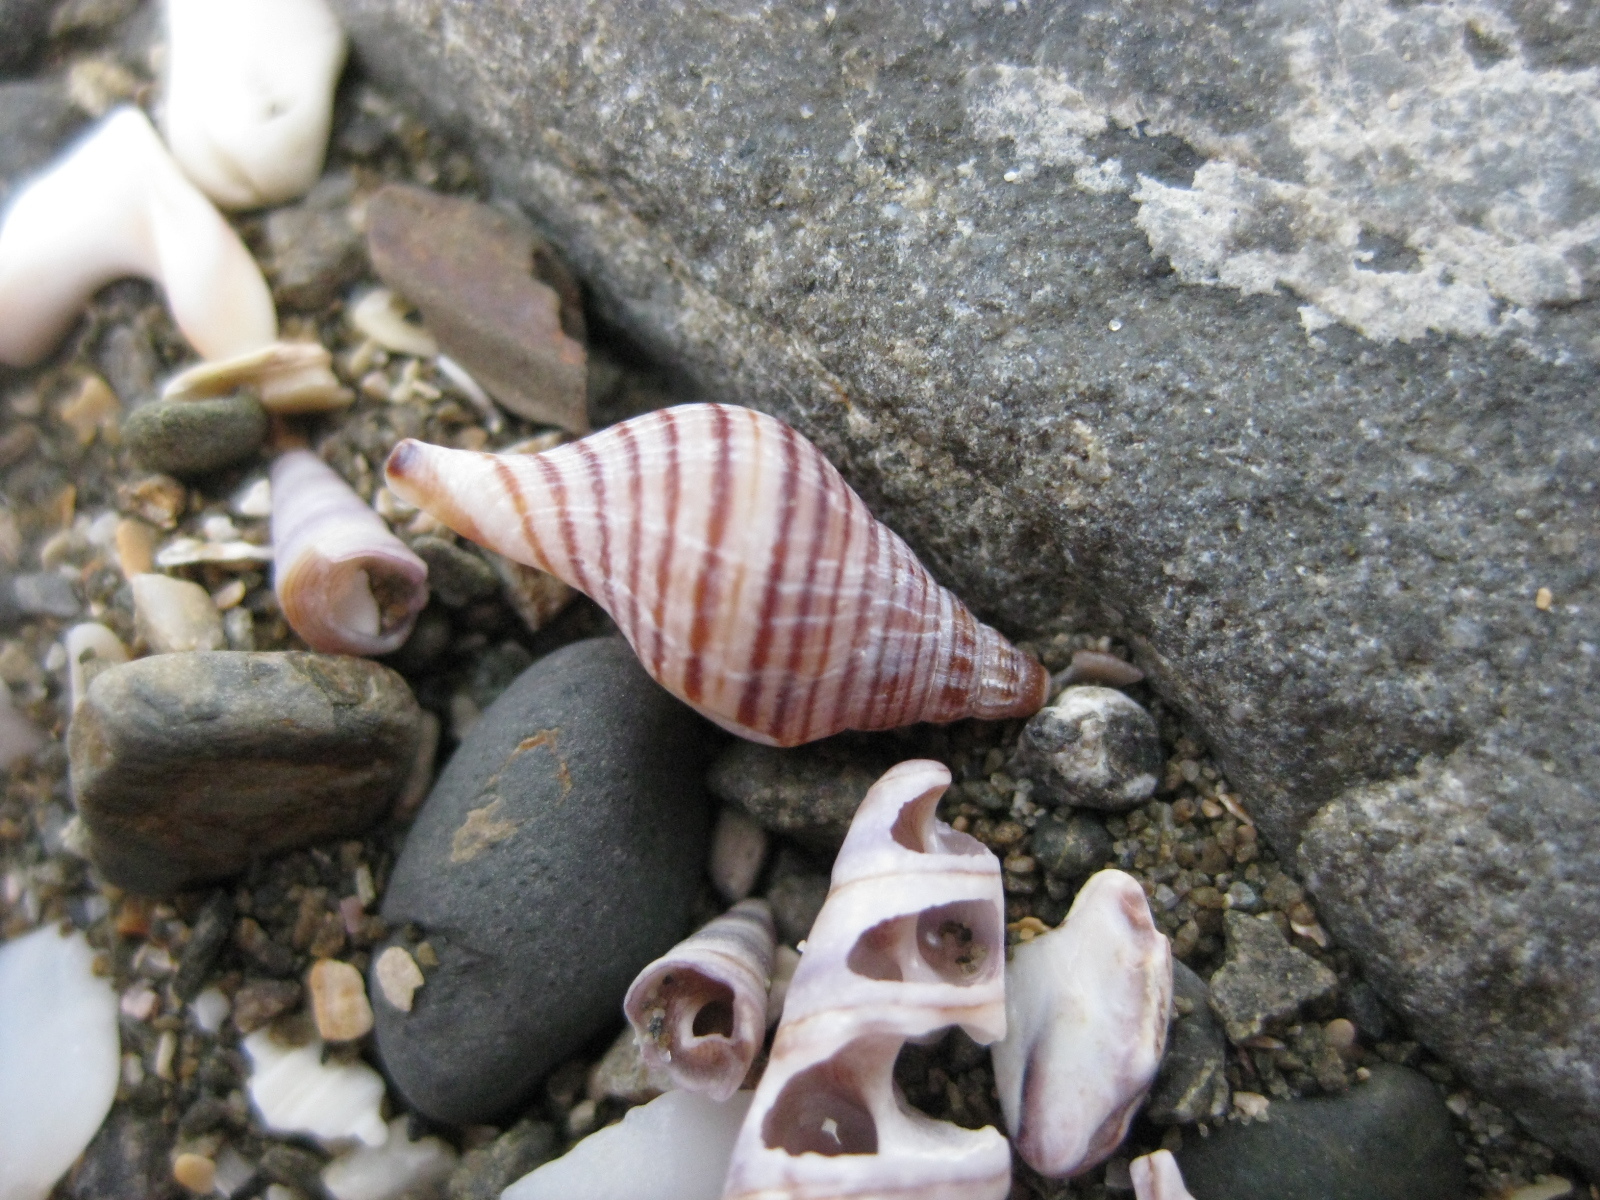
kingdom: Animalia
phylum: Mollusca
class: Gastropoda
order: Neogastropoda
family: Tudiclidae
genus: Buccinulum
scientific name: Buccinulum linea
